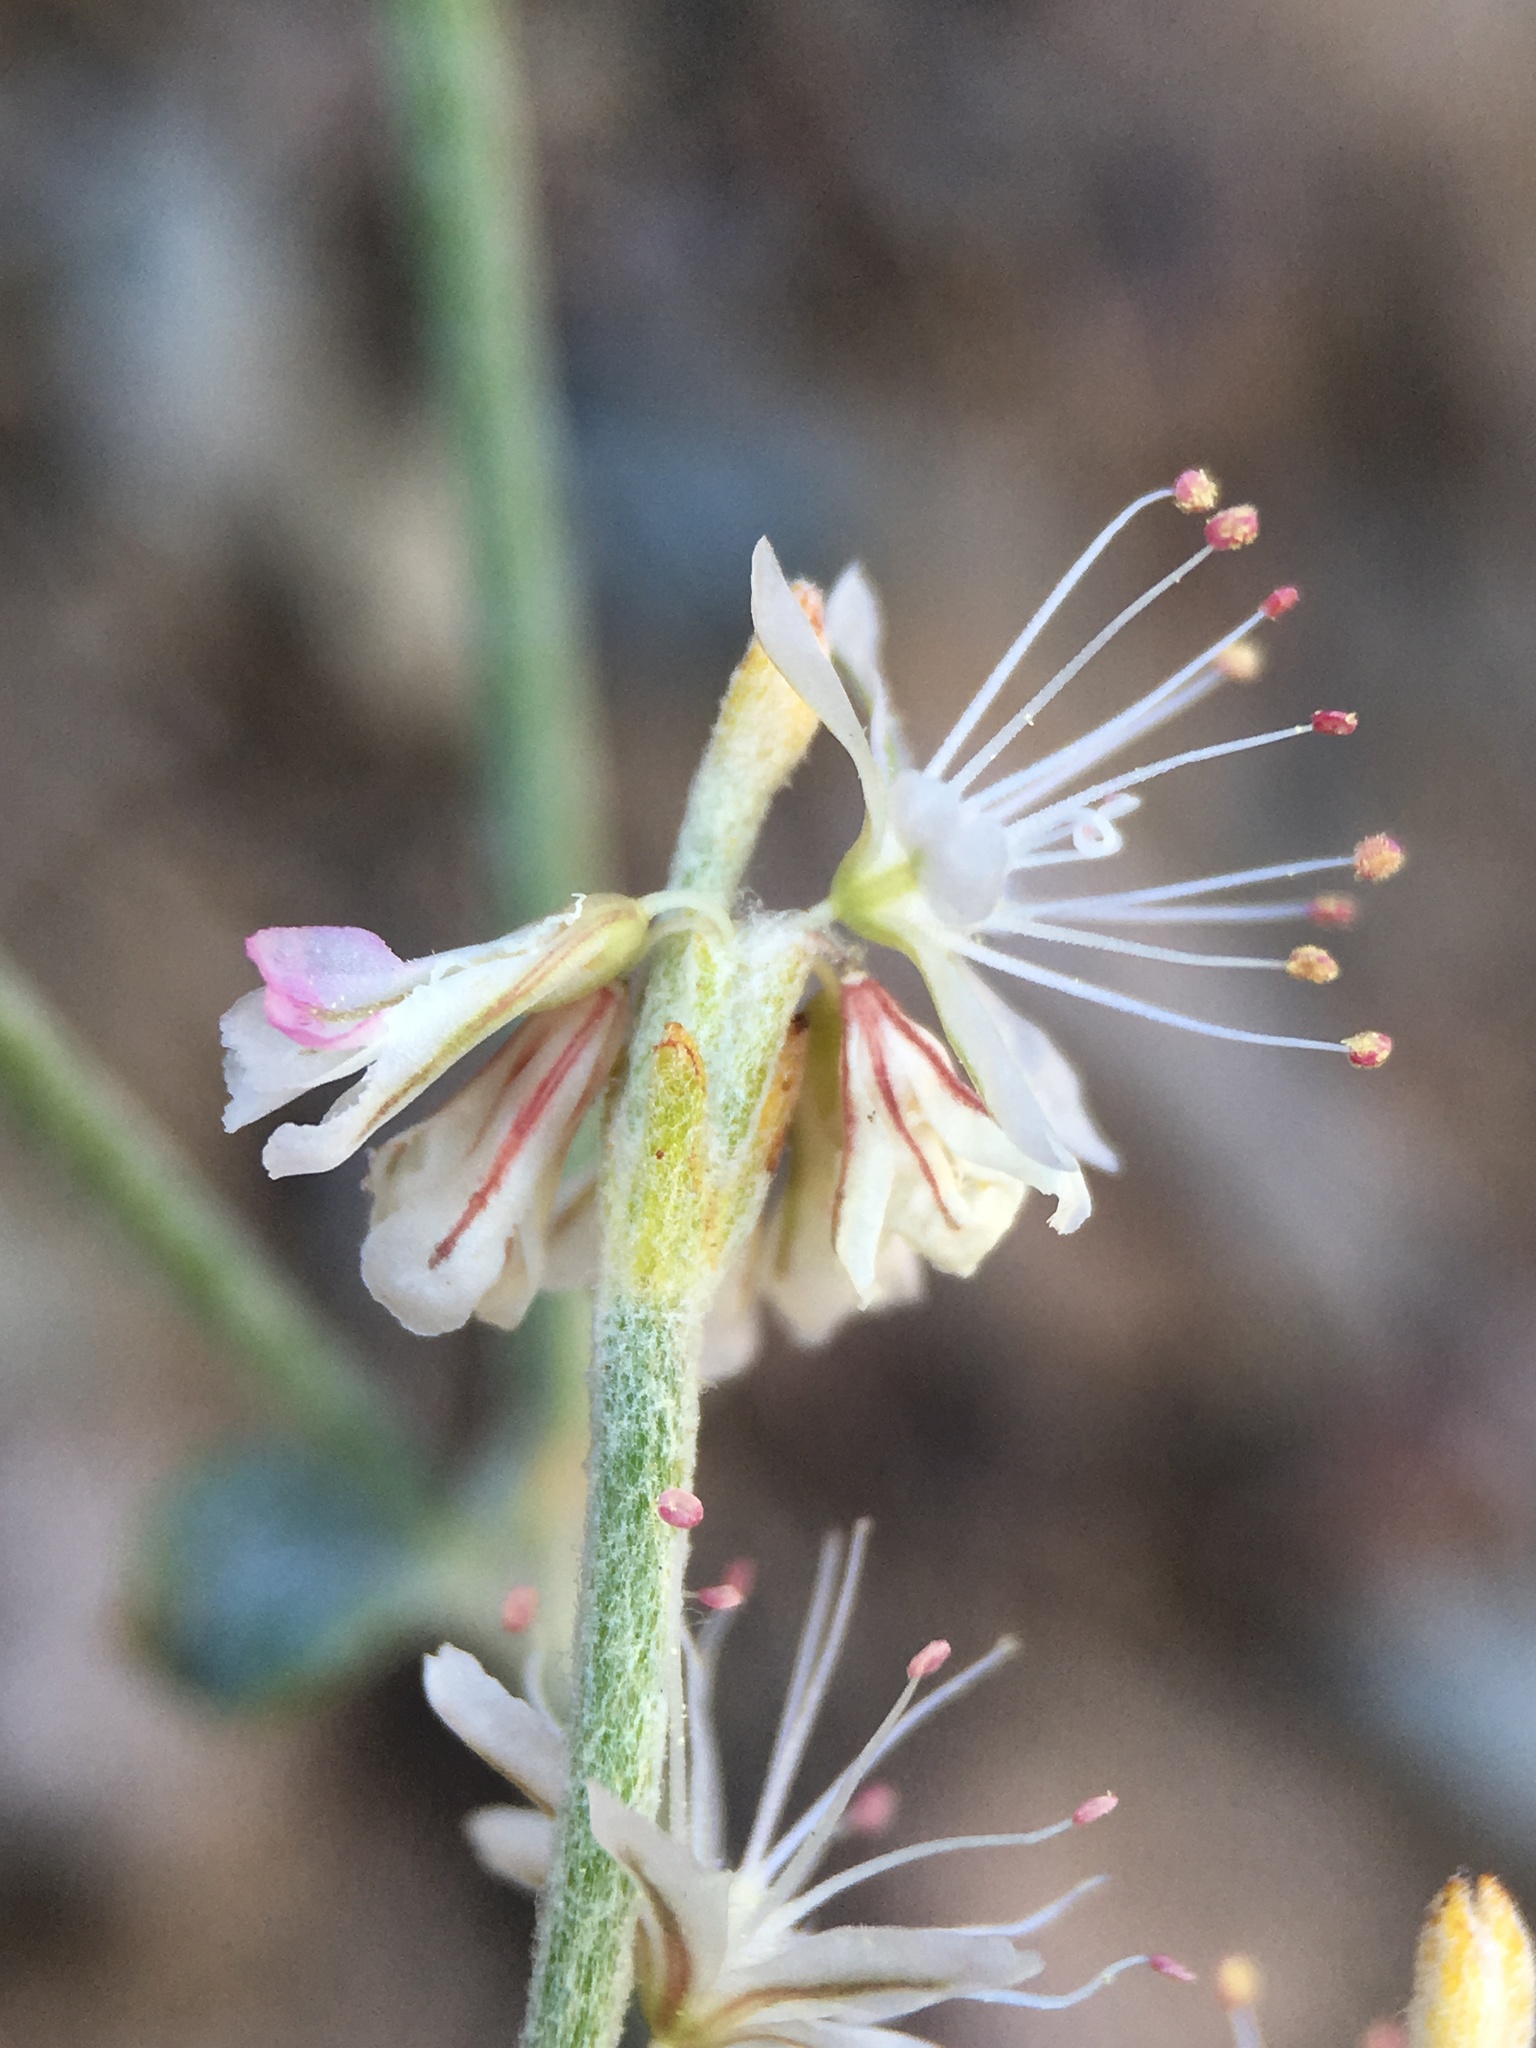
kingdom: Plantae
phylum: Tracheophyta
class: Magnoliopsida
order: Caryophyllales
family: Polygonaceae
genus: Eriogonum
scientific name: Eriogonum panamintense
